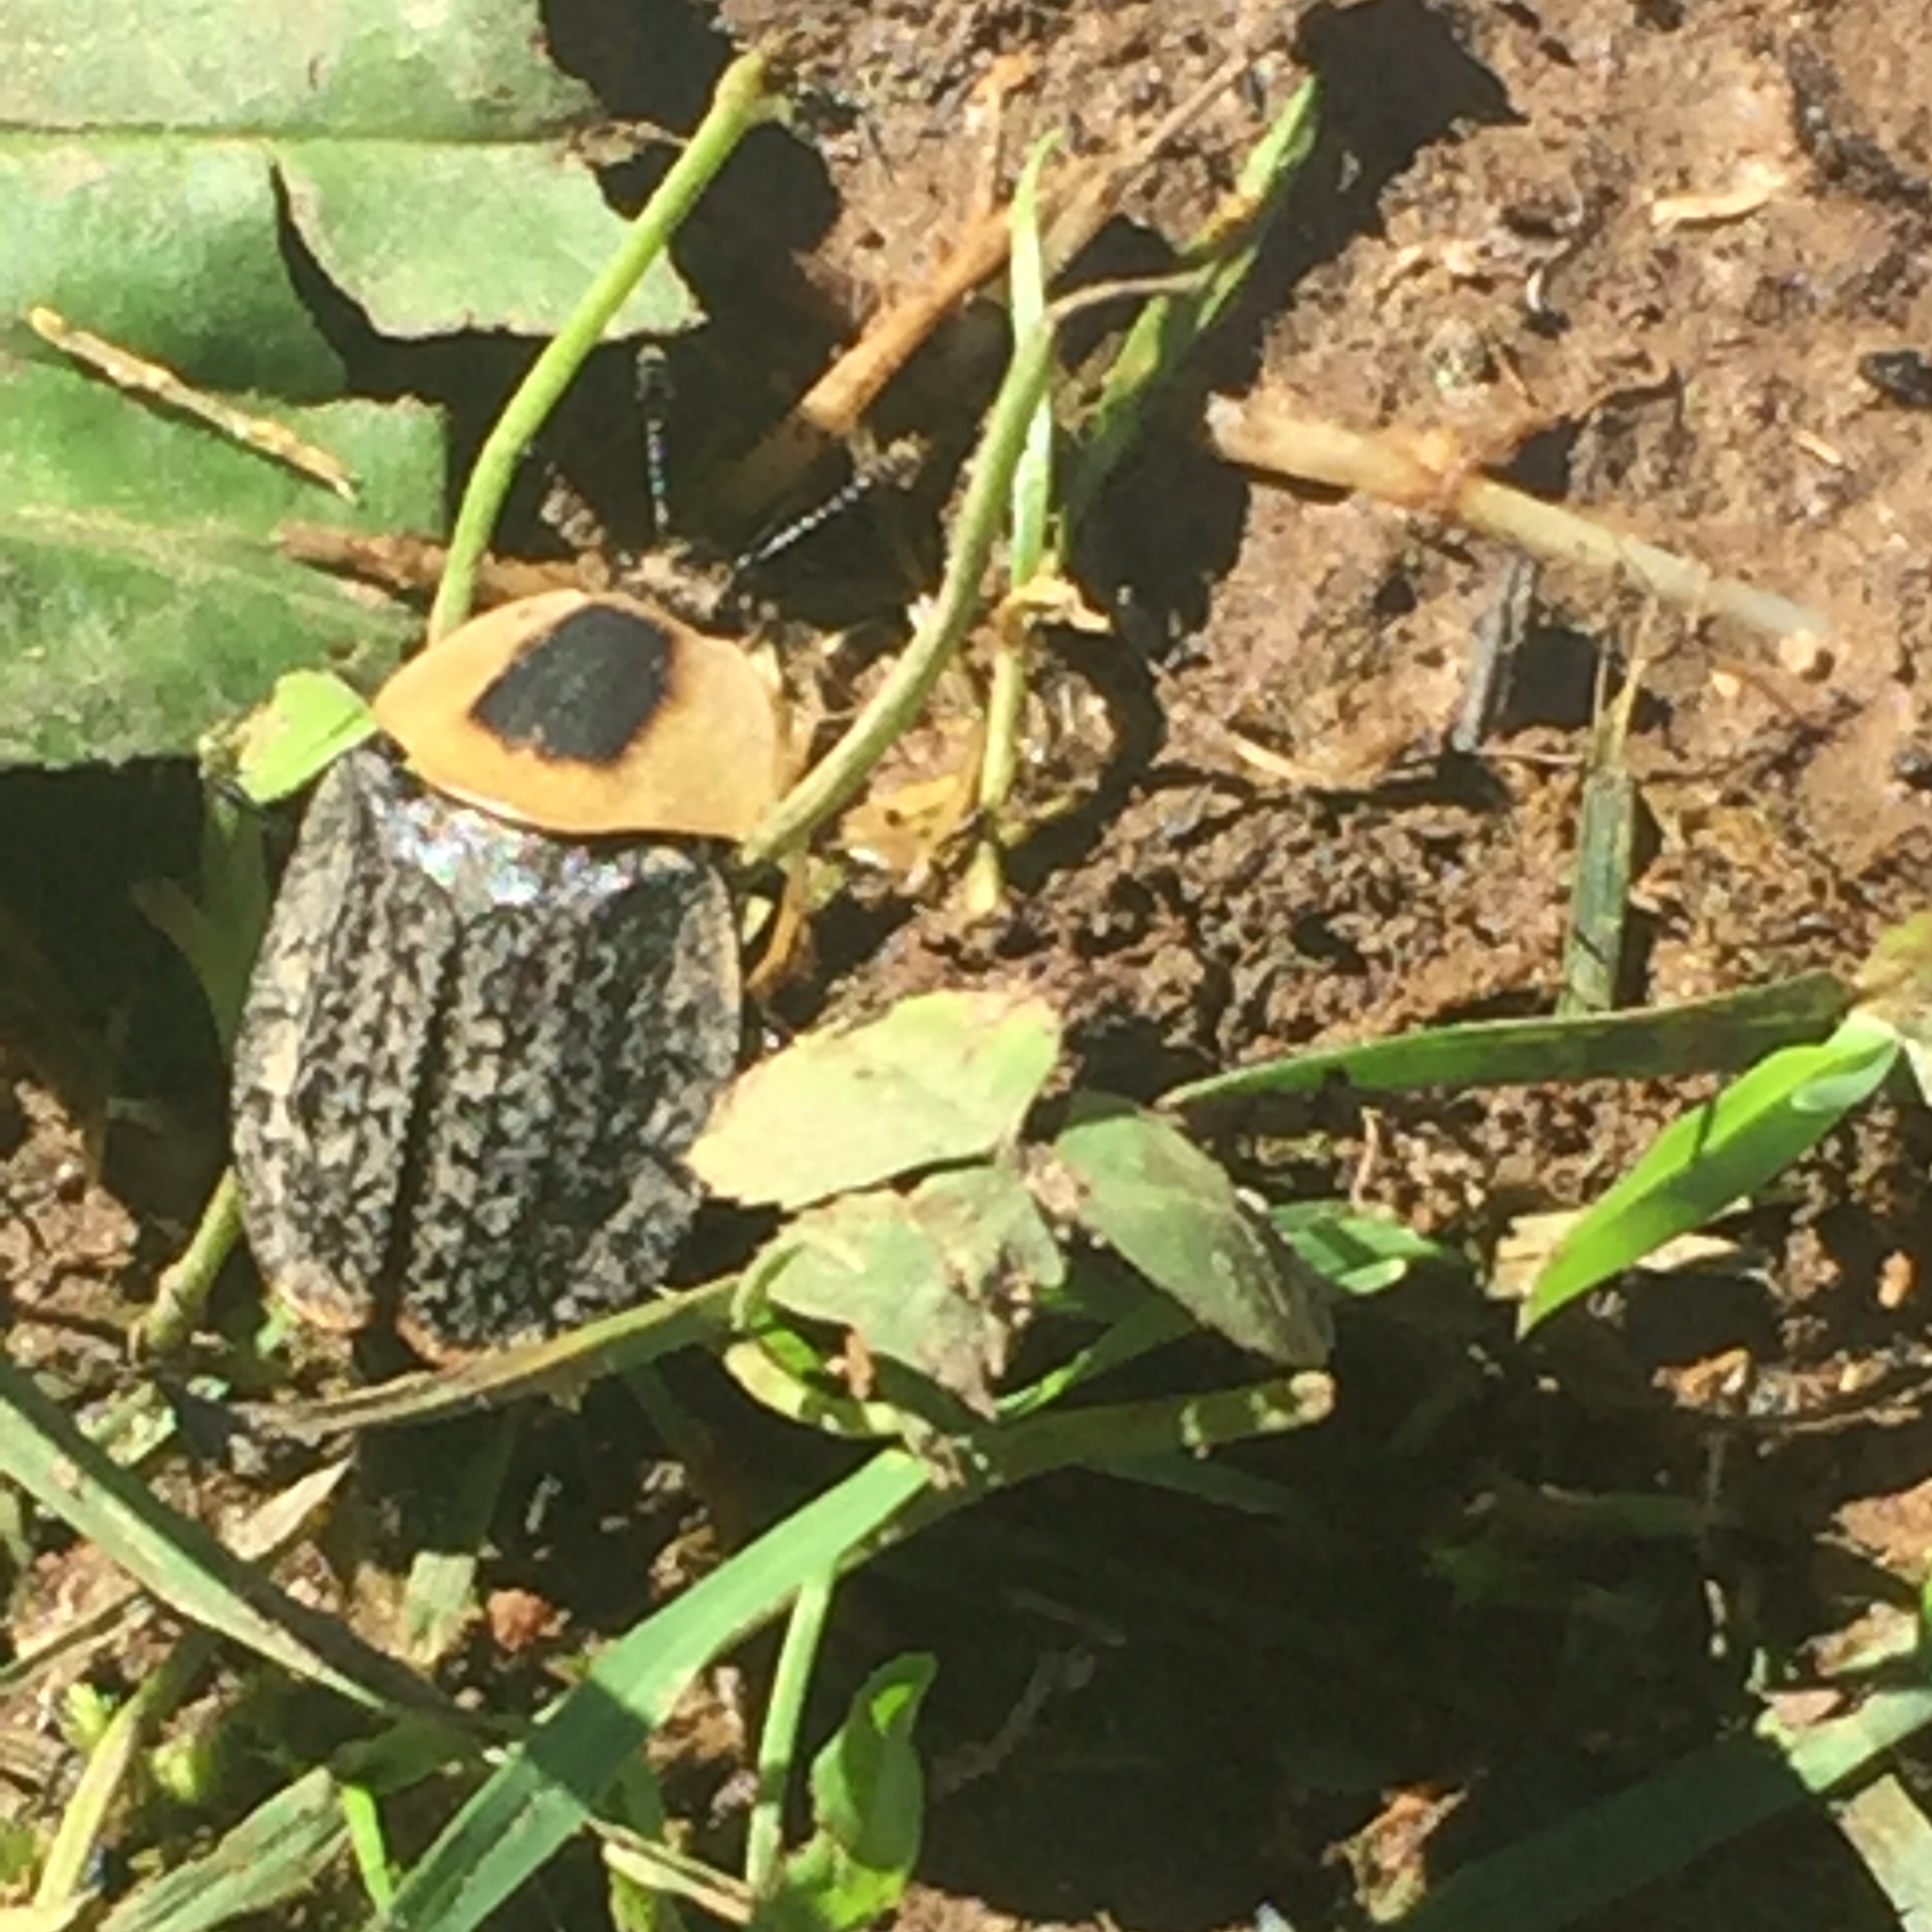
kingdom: Animalia
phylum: Arthropoda
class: Insecta
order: Coleoptera
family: Staphylinidae
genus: Necrophila
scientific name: Necrophila americana
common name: American carrion beetle
